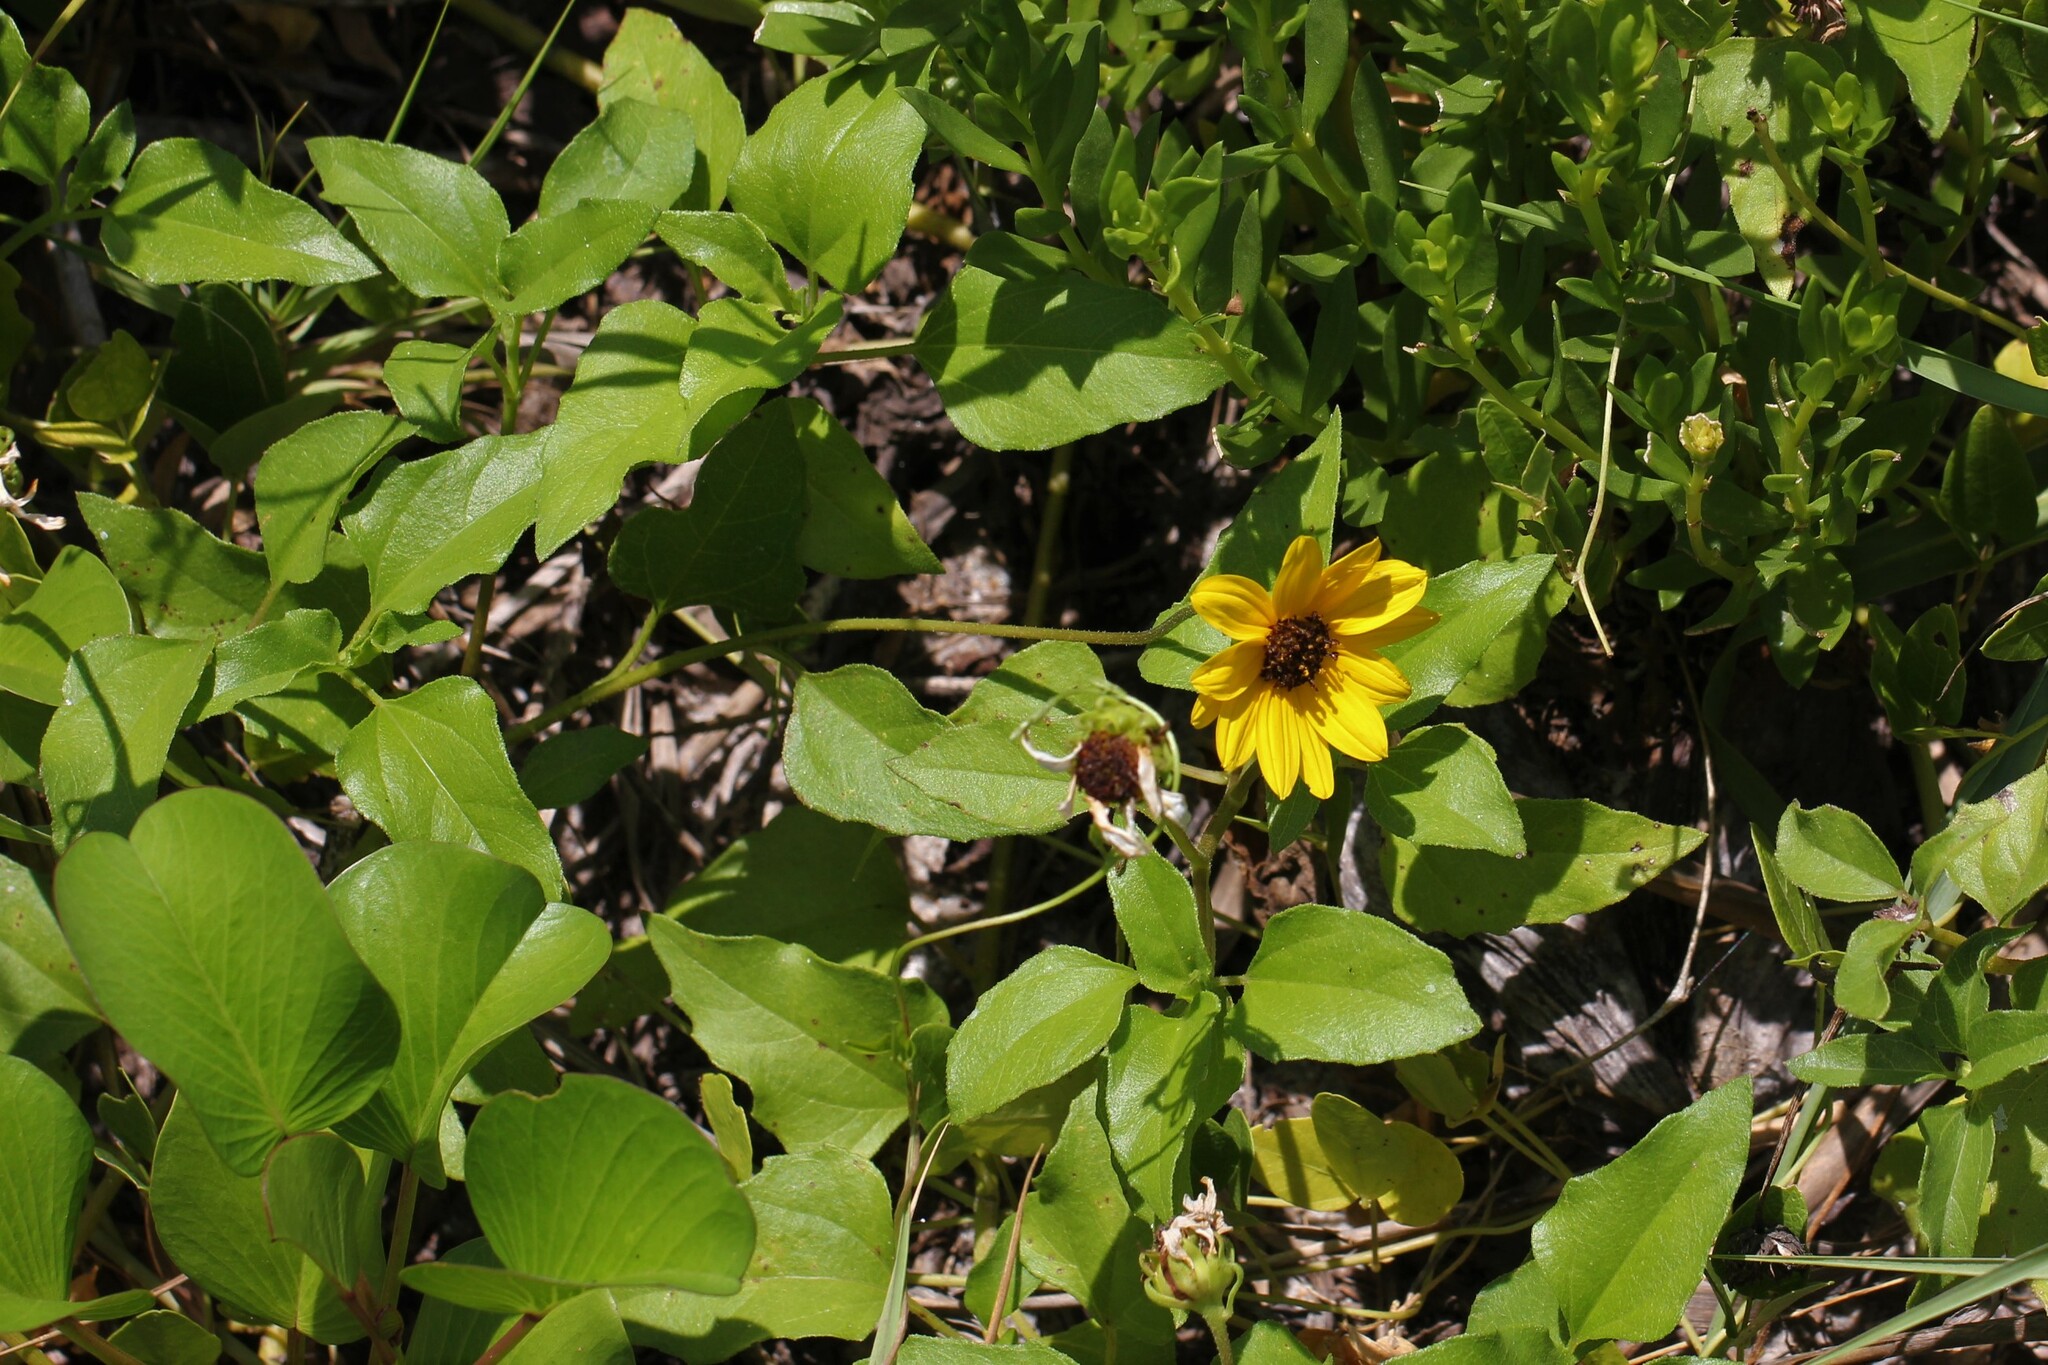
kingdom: Plantae
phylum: Tracheophyta
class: Magnoliopsida
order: Asterales
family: Asteraceae
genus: Helianthus
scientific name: Helianthus debilis
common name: Weak sunflower
